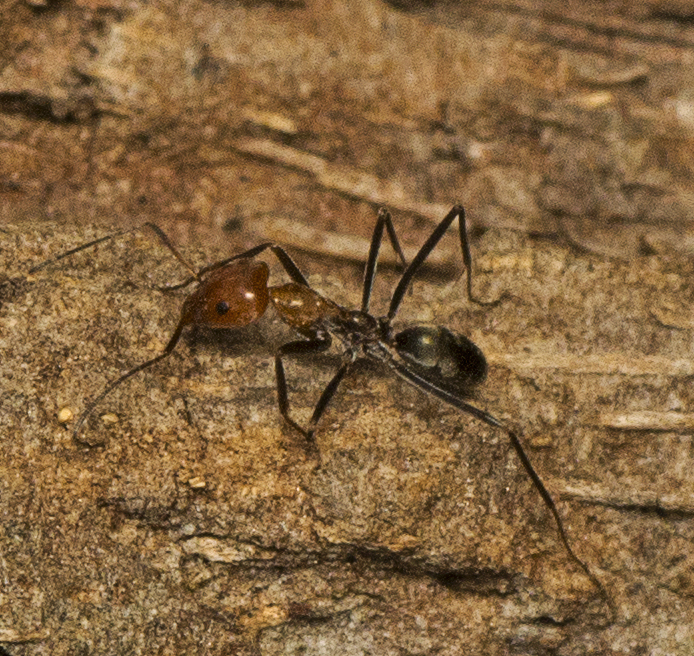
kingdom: Animalia
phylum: Arthropoda
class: Insecta
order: Hymenoptera
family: Formicidae
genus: Iridomyrmex
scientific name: Iridomyrmex
